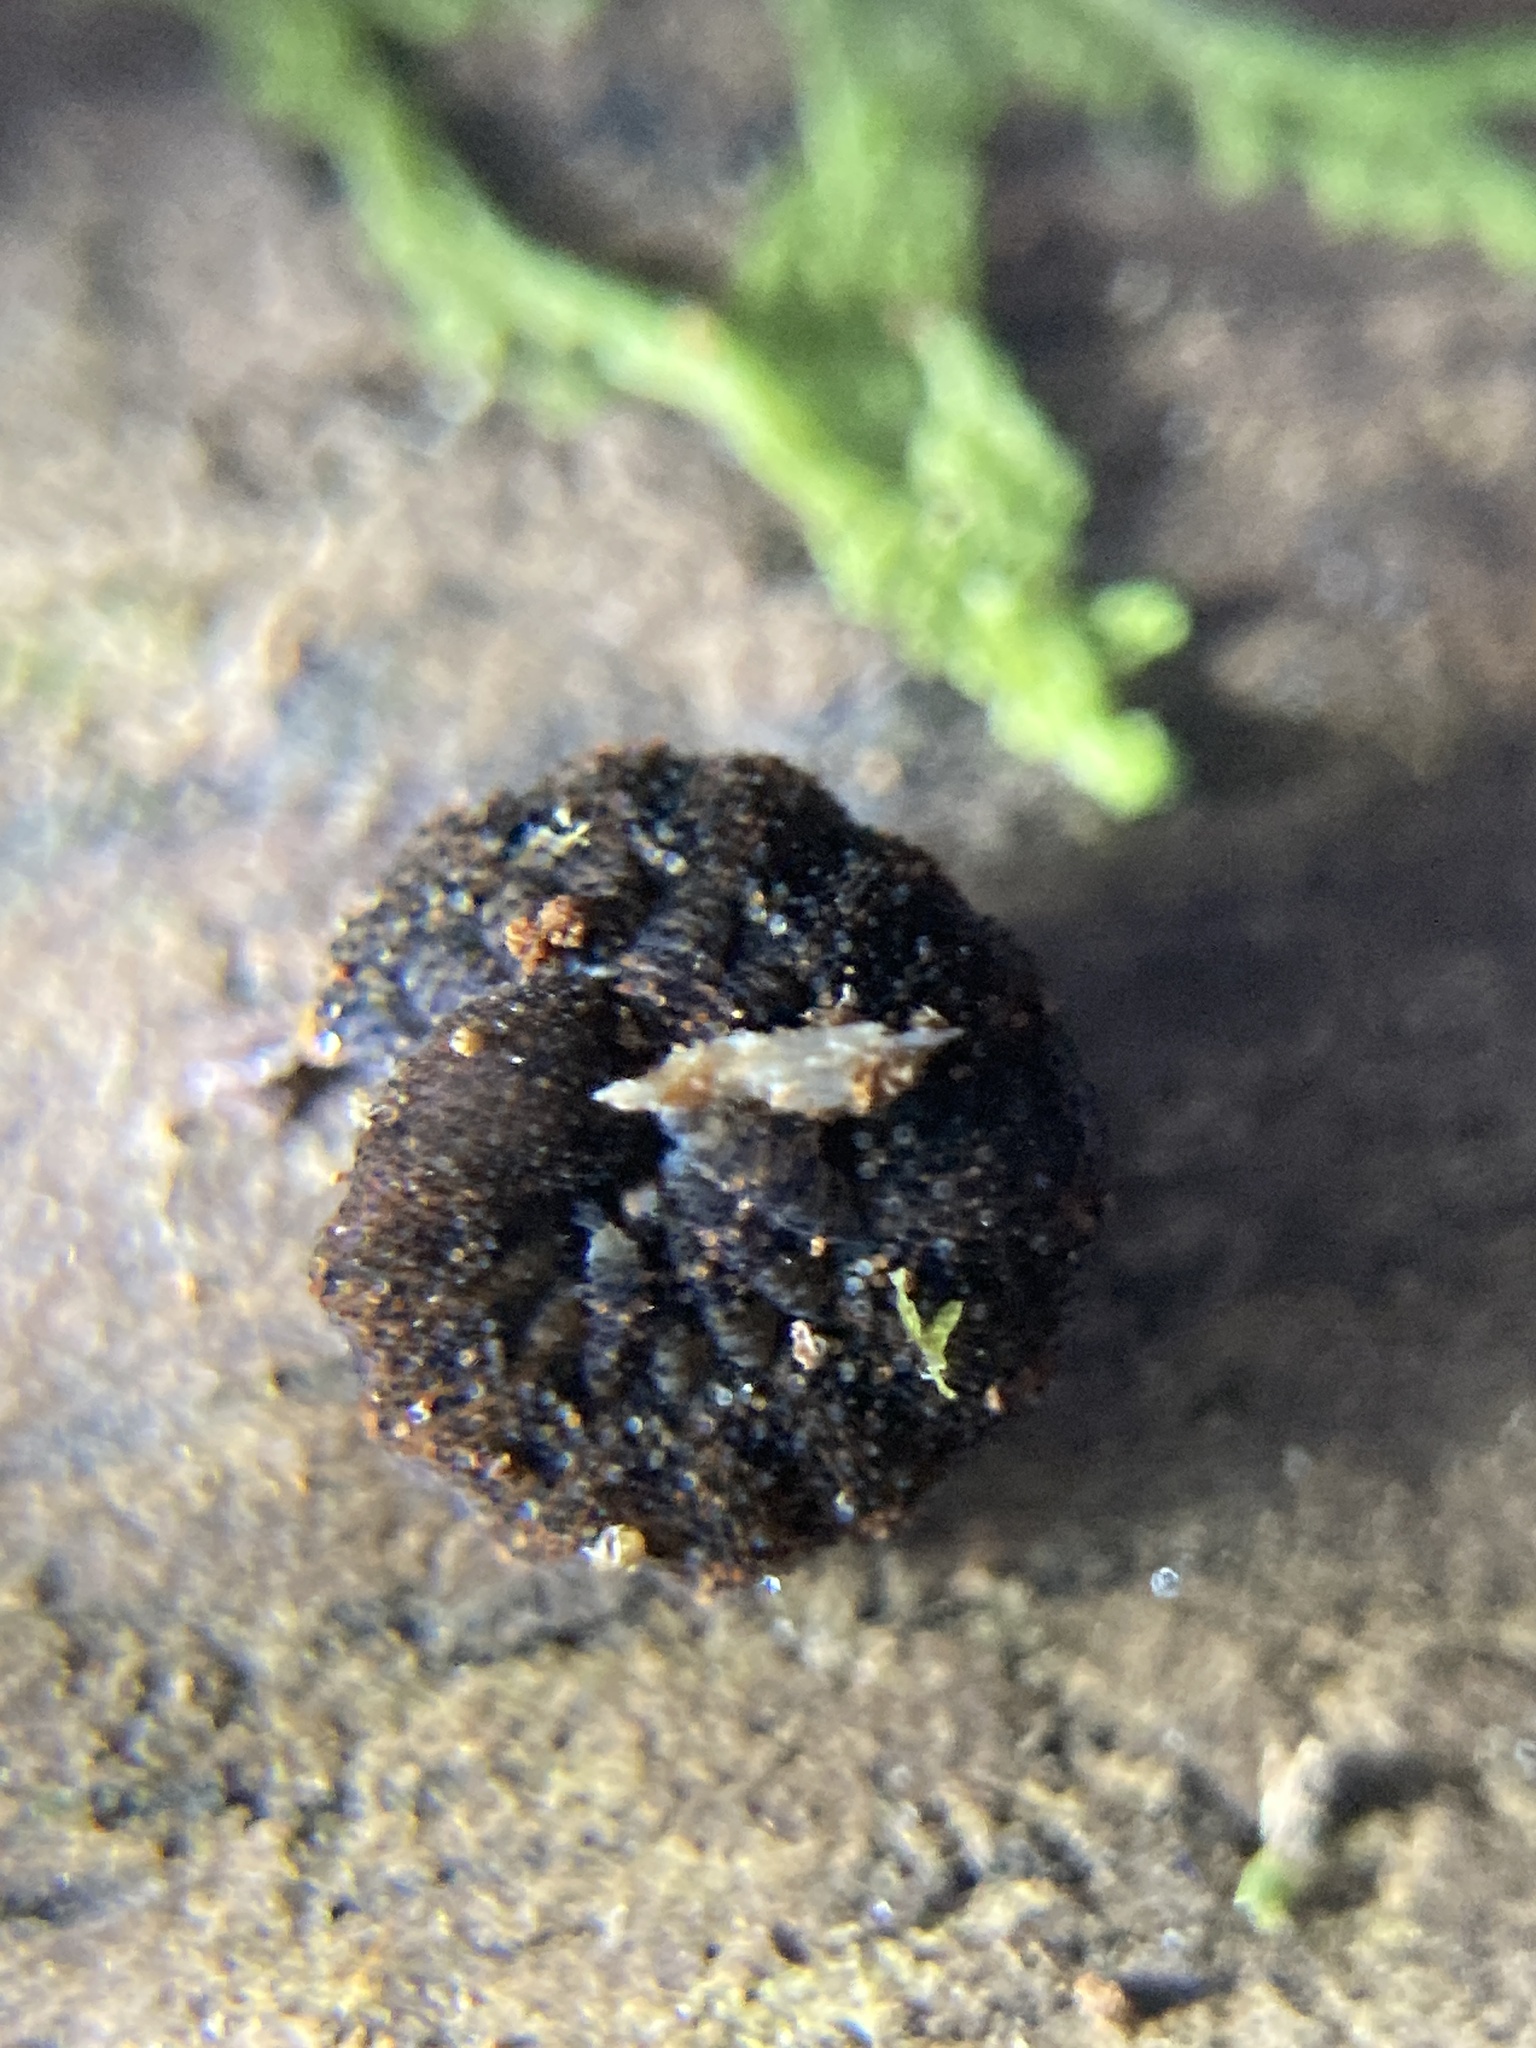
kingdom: Animalia
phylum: Onychophora
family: Peripatopsidae
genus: Anoplokaros
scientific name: Anoplokaros keerensis
